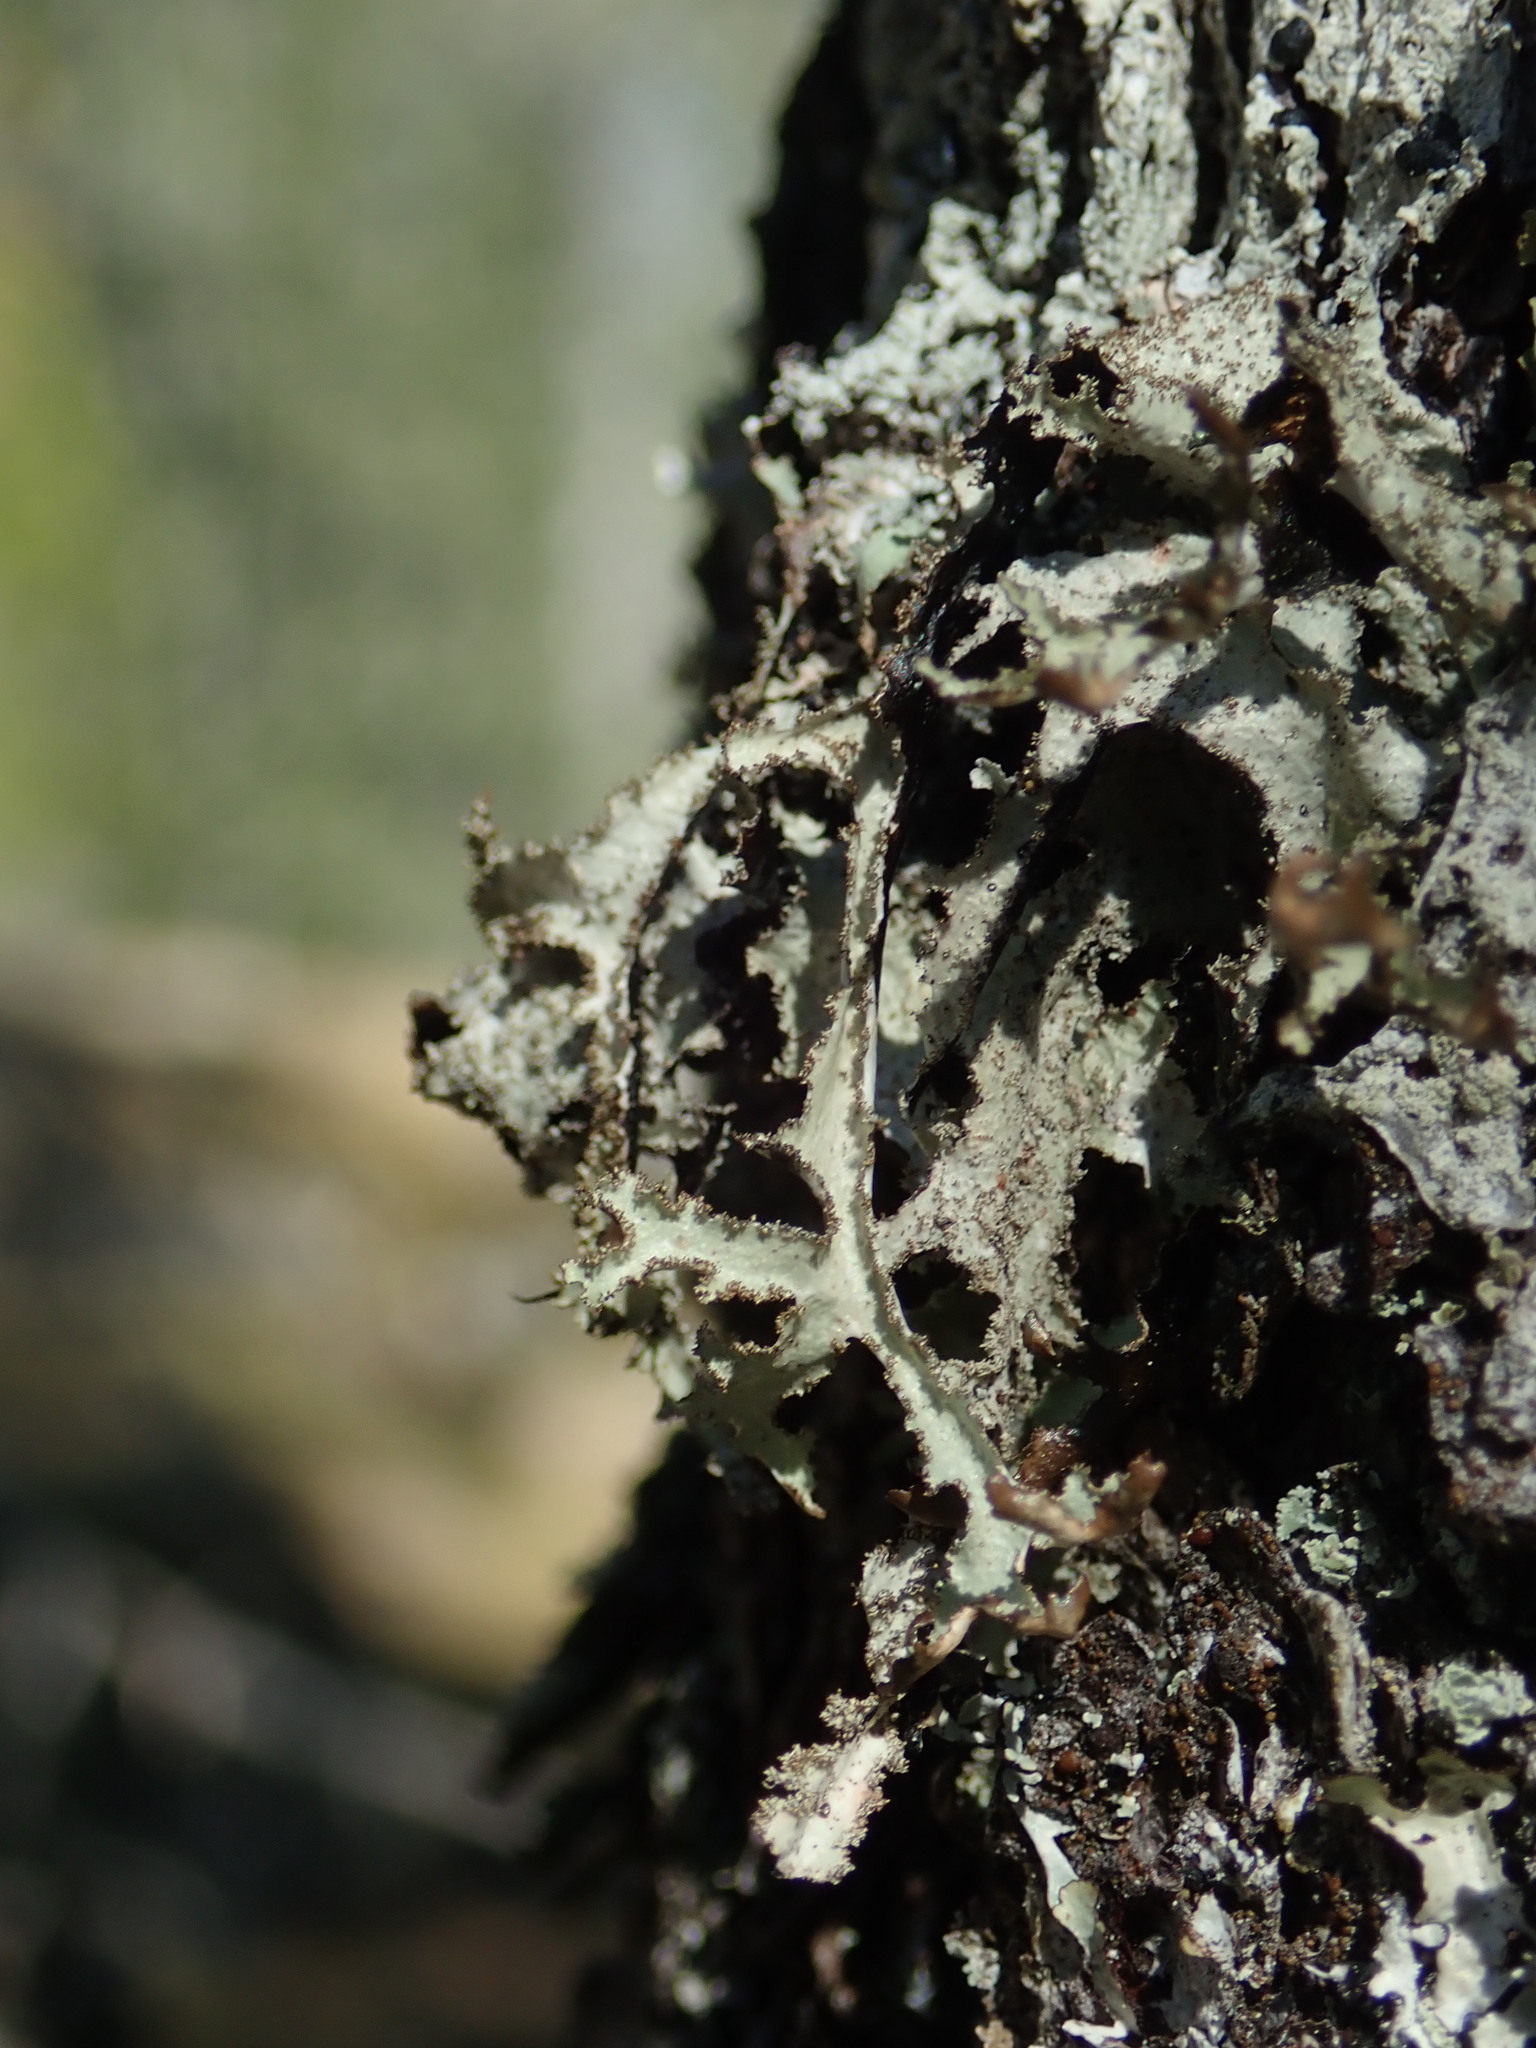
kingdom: Fungi
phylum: Ascomycota
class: Lecanoromycetes
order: Lecanorales
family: Parmeliaceae
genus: Platismatia
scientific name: Platismatia herrei
